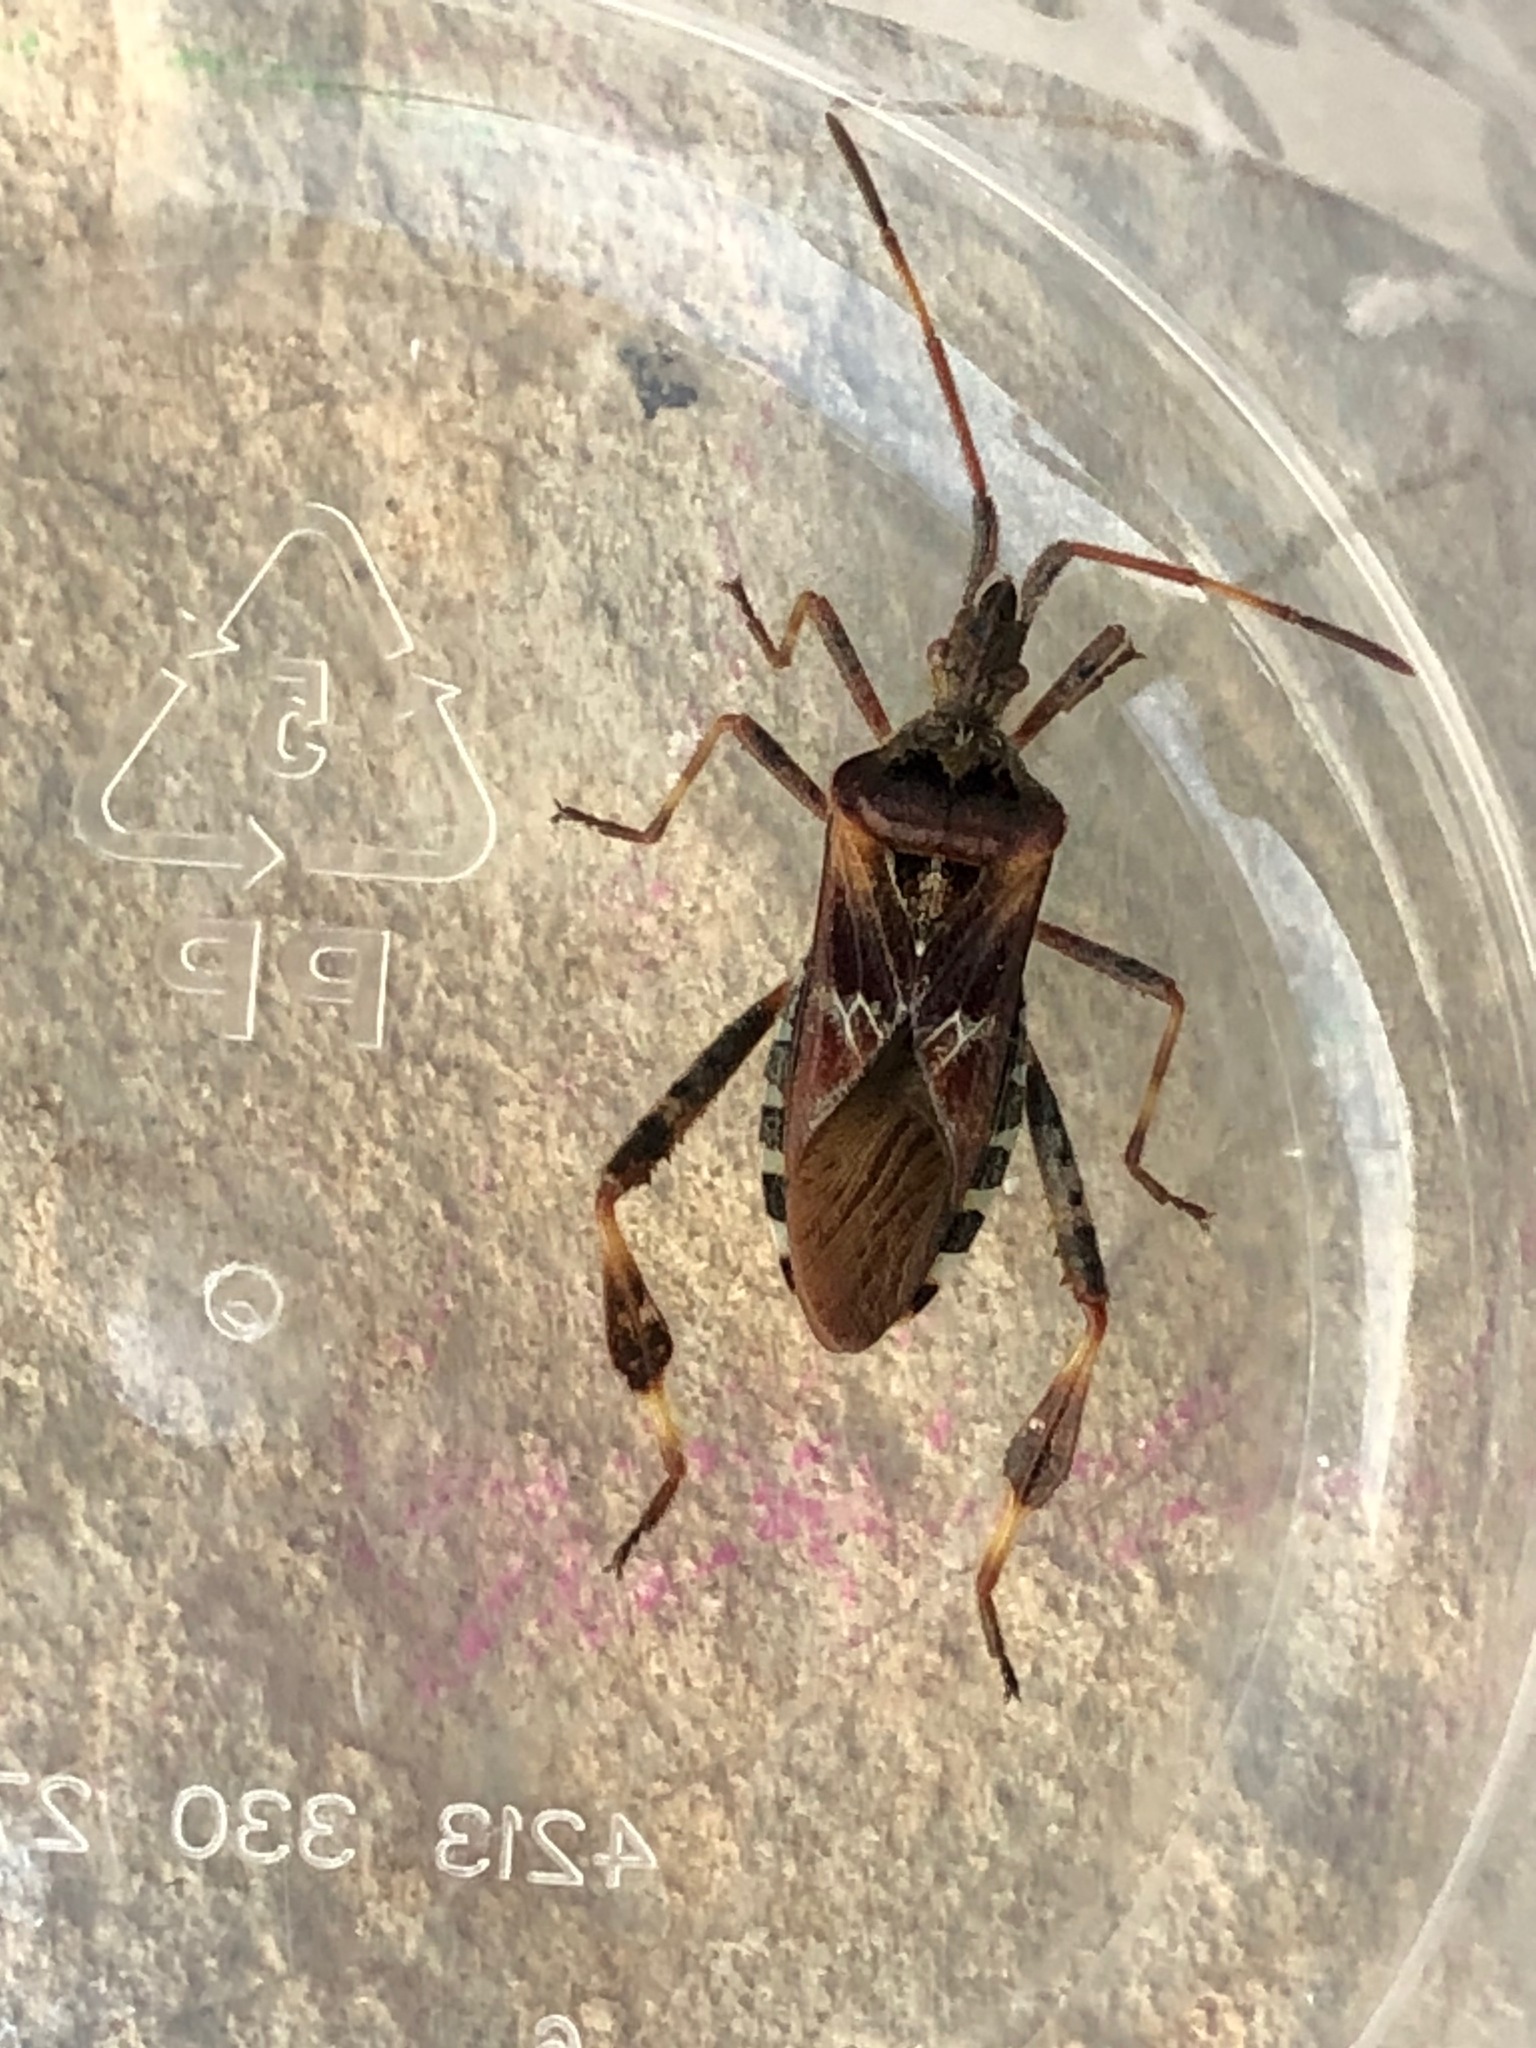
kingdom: Animalia
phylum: Arthropoda
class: Insecta
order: Hemiptera
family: Coreidae
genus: Leptoglossus
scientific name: Leptoglossus occidentalis
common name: Western conifer-seed bug
